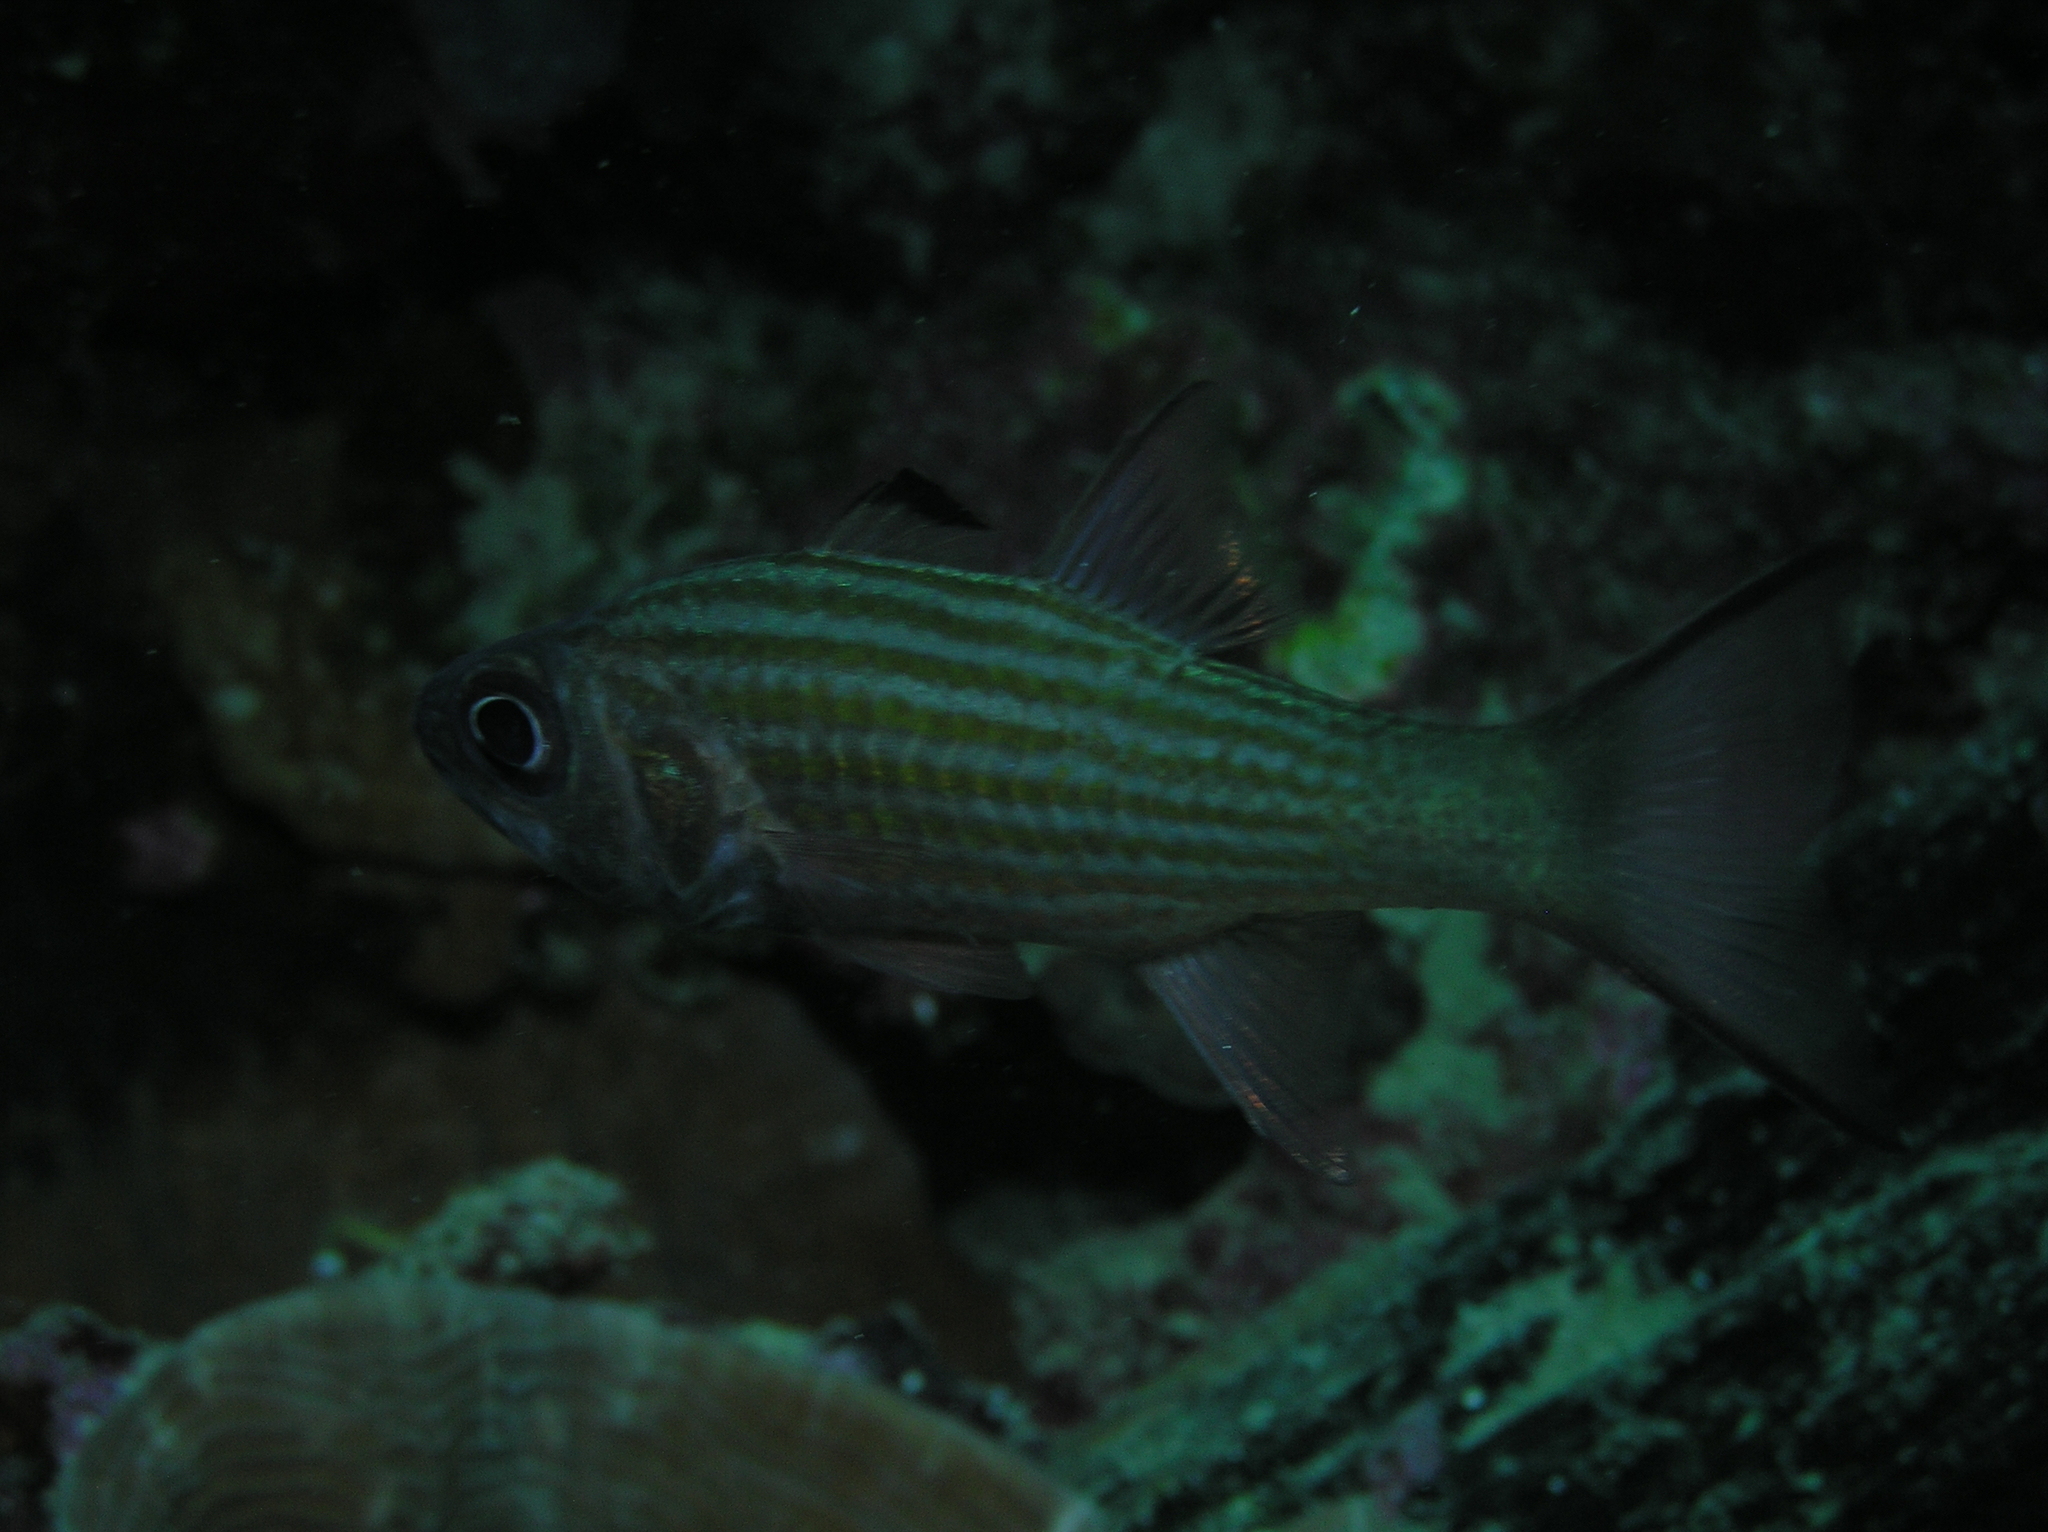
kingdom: Animalia
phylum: Chordata
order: Perciformes
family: Apogonidae
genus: Cheilodipterus
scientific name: Cheilodipterus alleni
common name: Allen's cardinalfish
